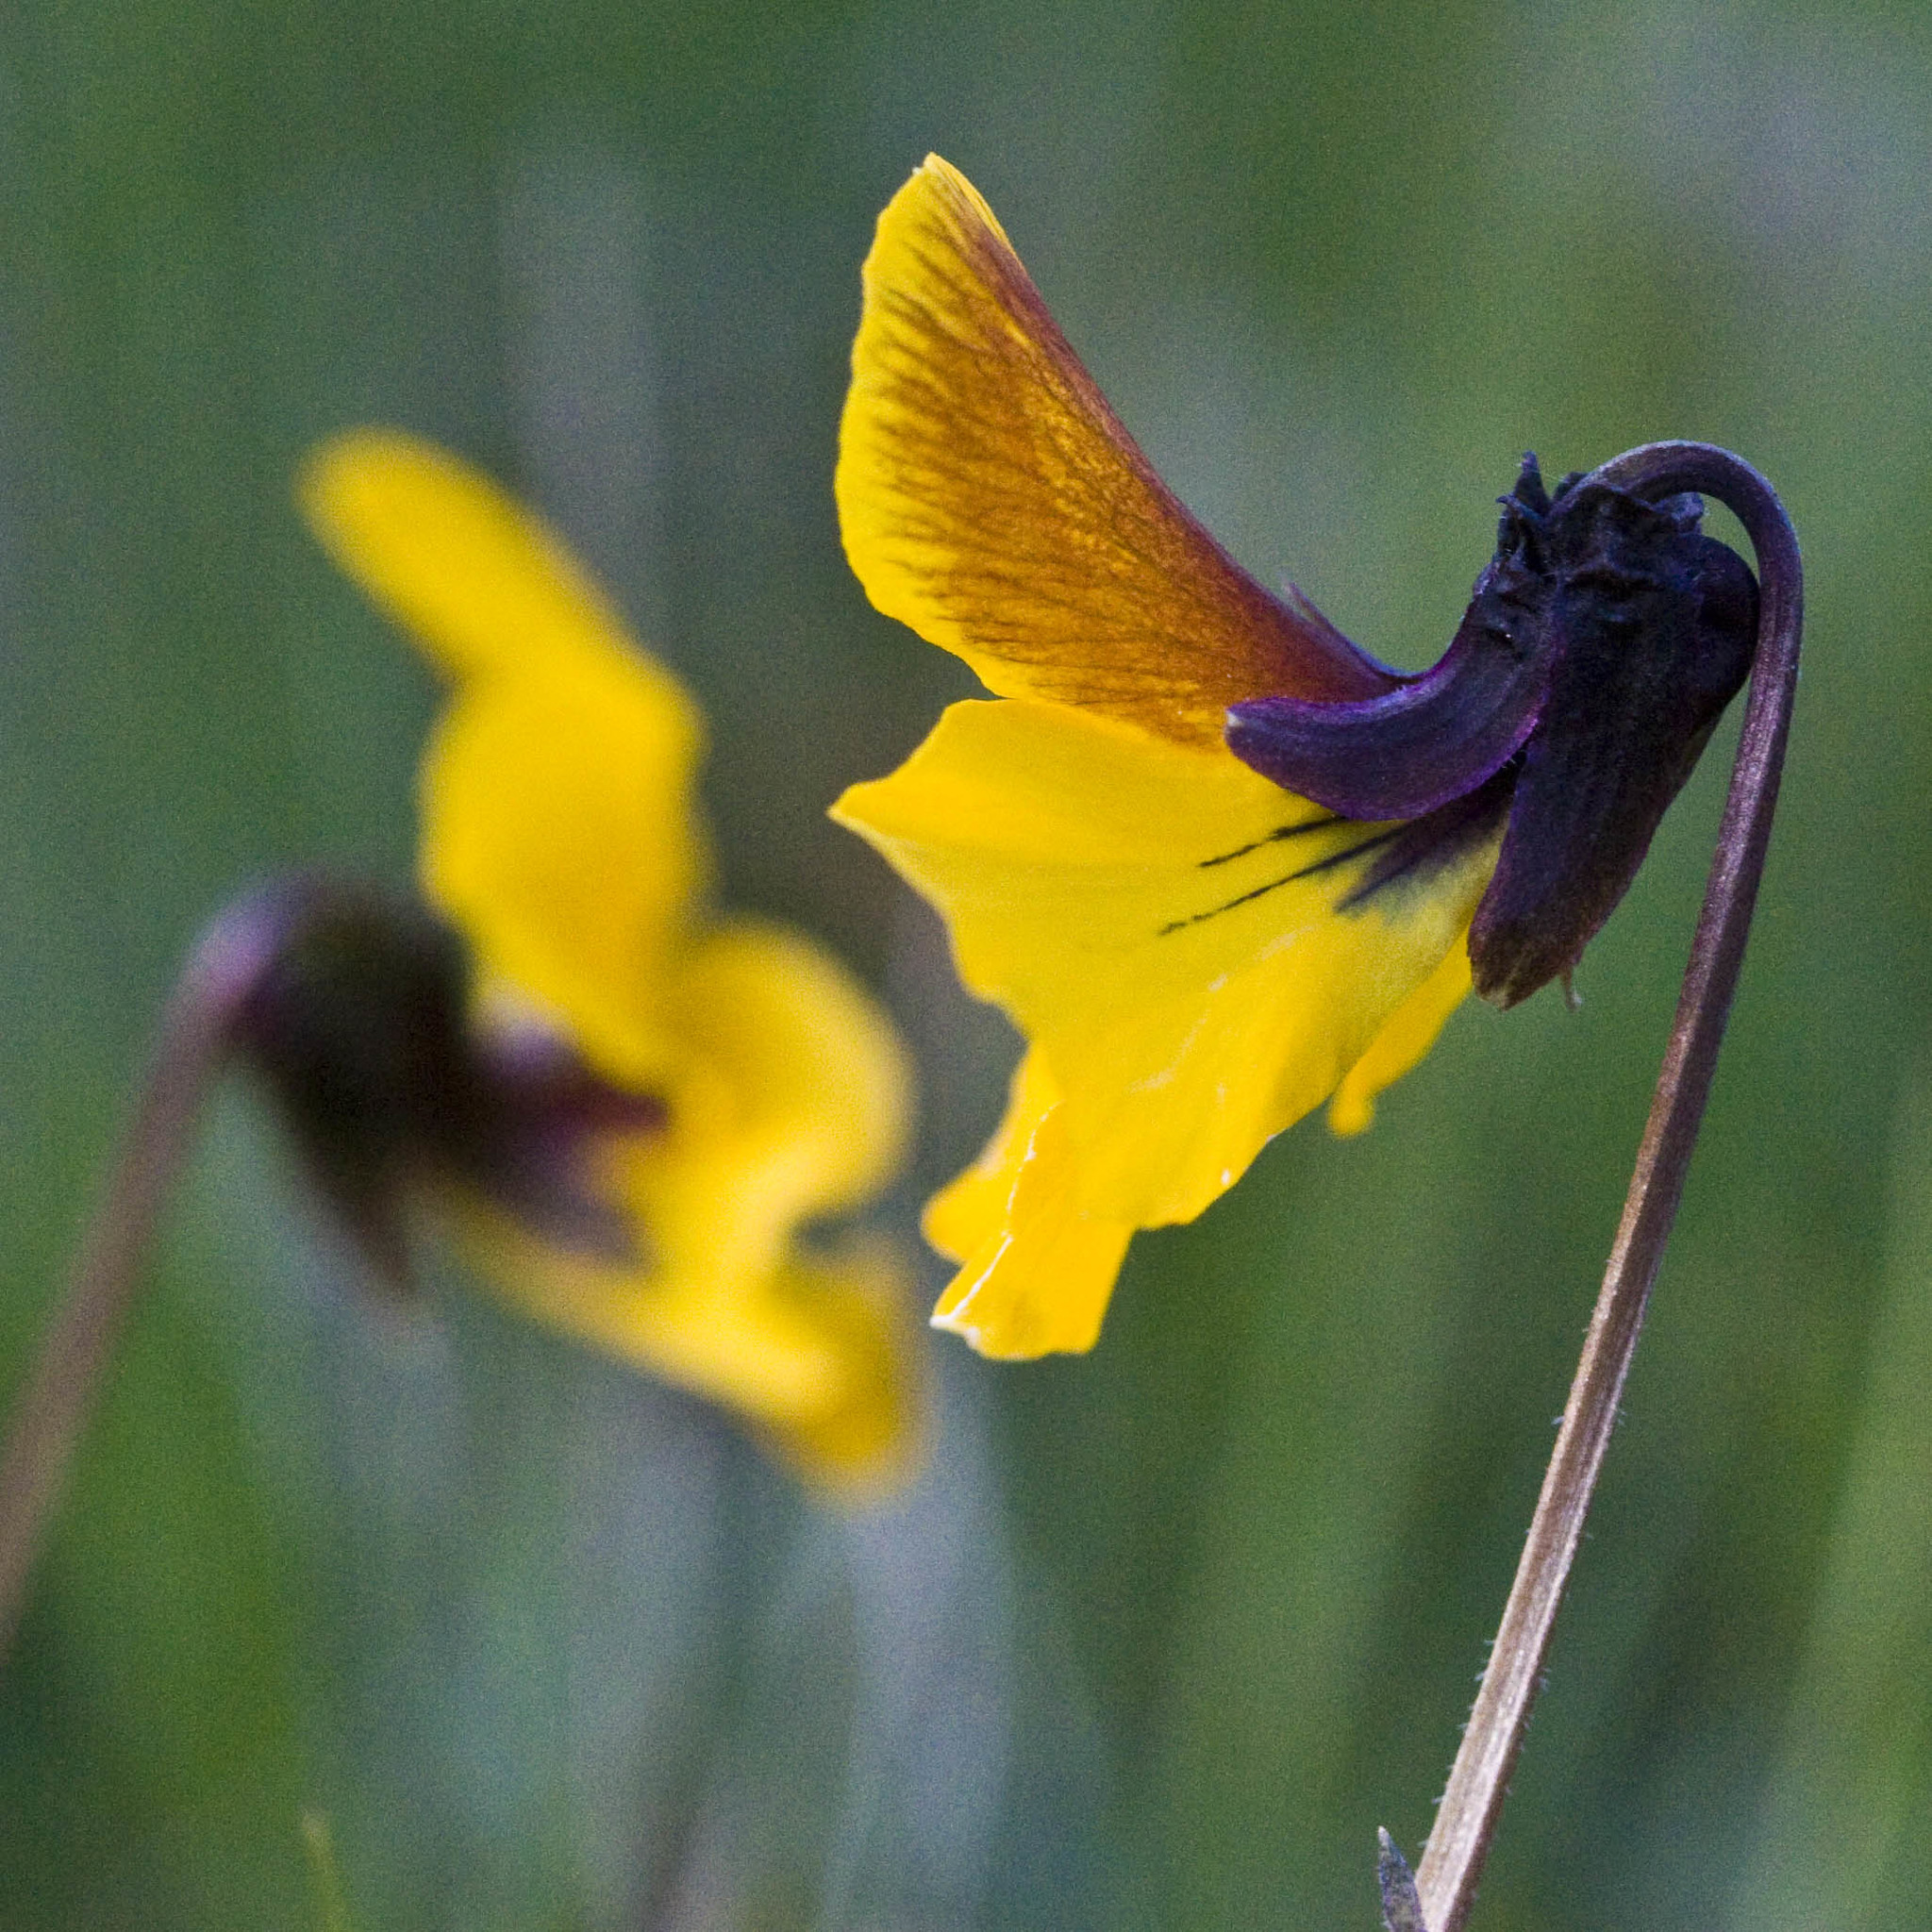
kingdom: Plantae
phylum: Tracheophyta
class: Magnoliopsida
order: Malpighiales
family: Violaceae
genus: Viola
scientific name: Viola pedunculata
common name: California golden violet
